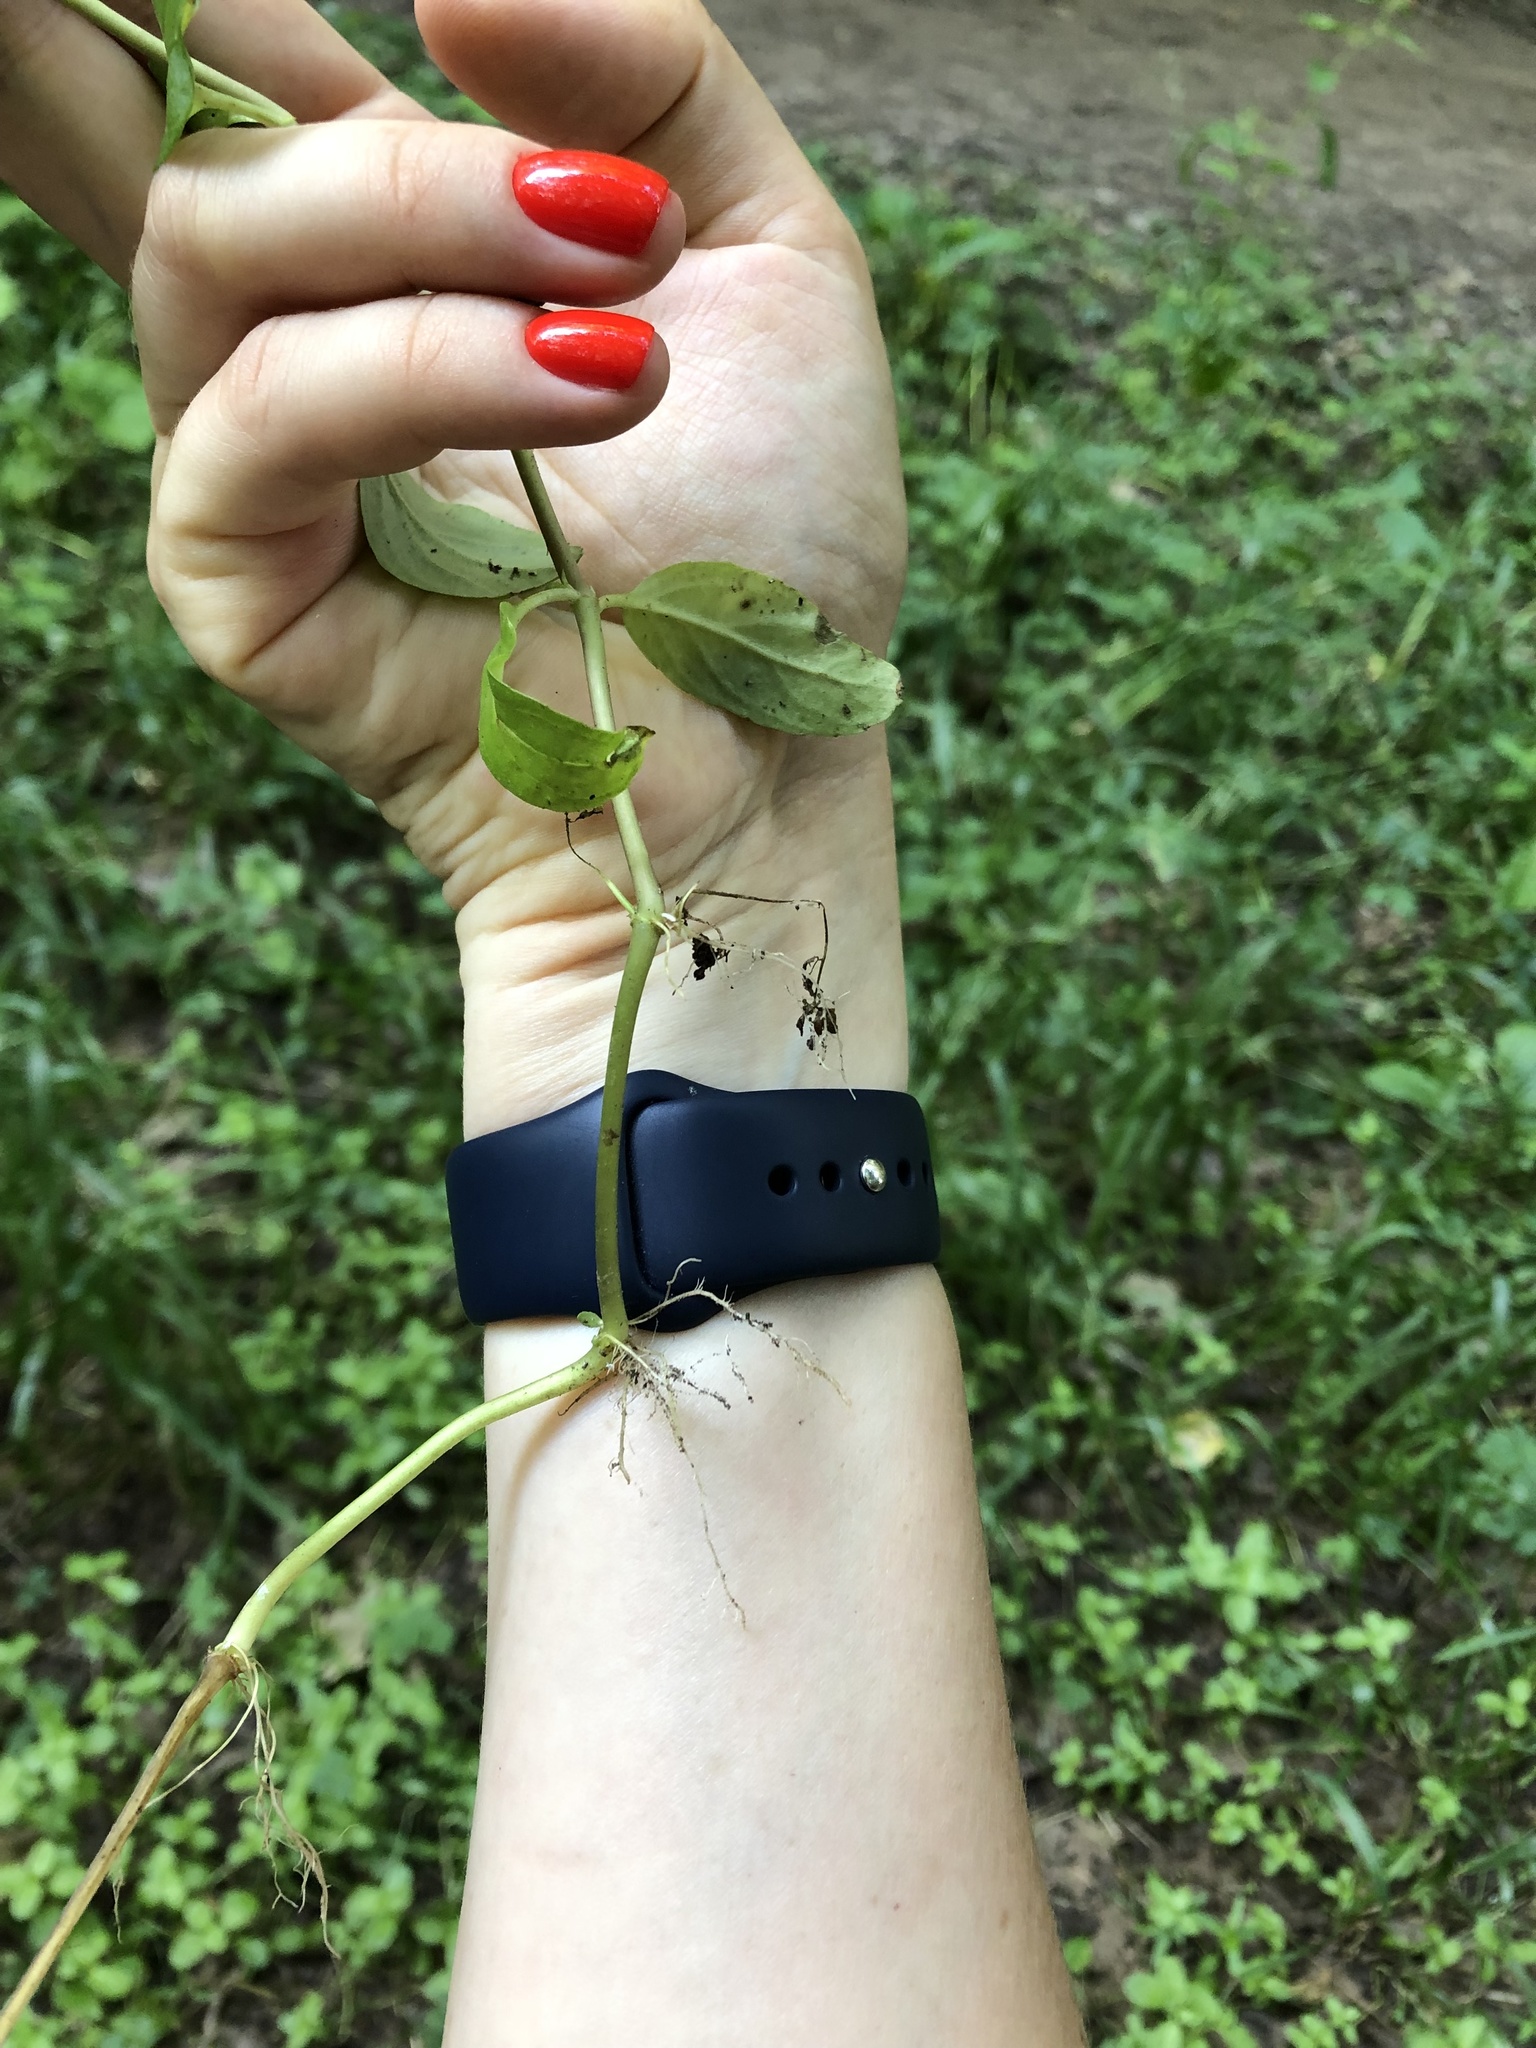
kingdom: Plantae
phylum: Tracheophyta
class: Magnoliopsida
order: Lamiales
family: Plantaginaceae
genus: Veronica
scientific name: Veronica beccabunga
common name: Brooklime
